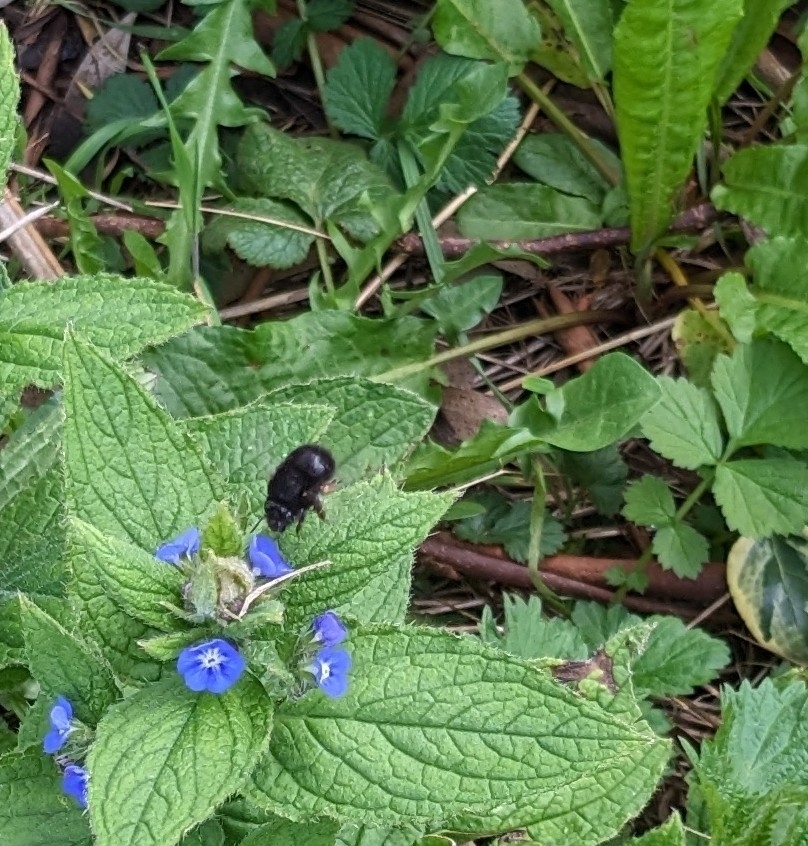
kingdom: Animalia
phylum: Arthropoda
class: Insecta
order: Hymenoptera
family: Apidae
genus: Anthophora
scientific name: Anthophora plumipes
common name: Hairy-footed flower bee
